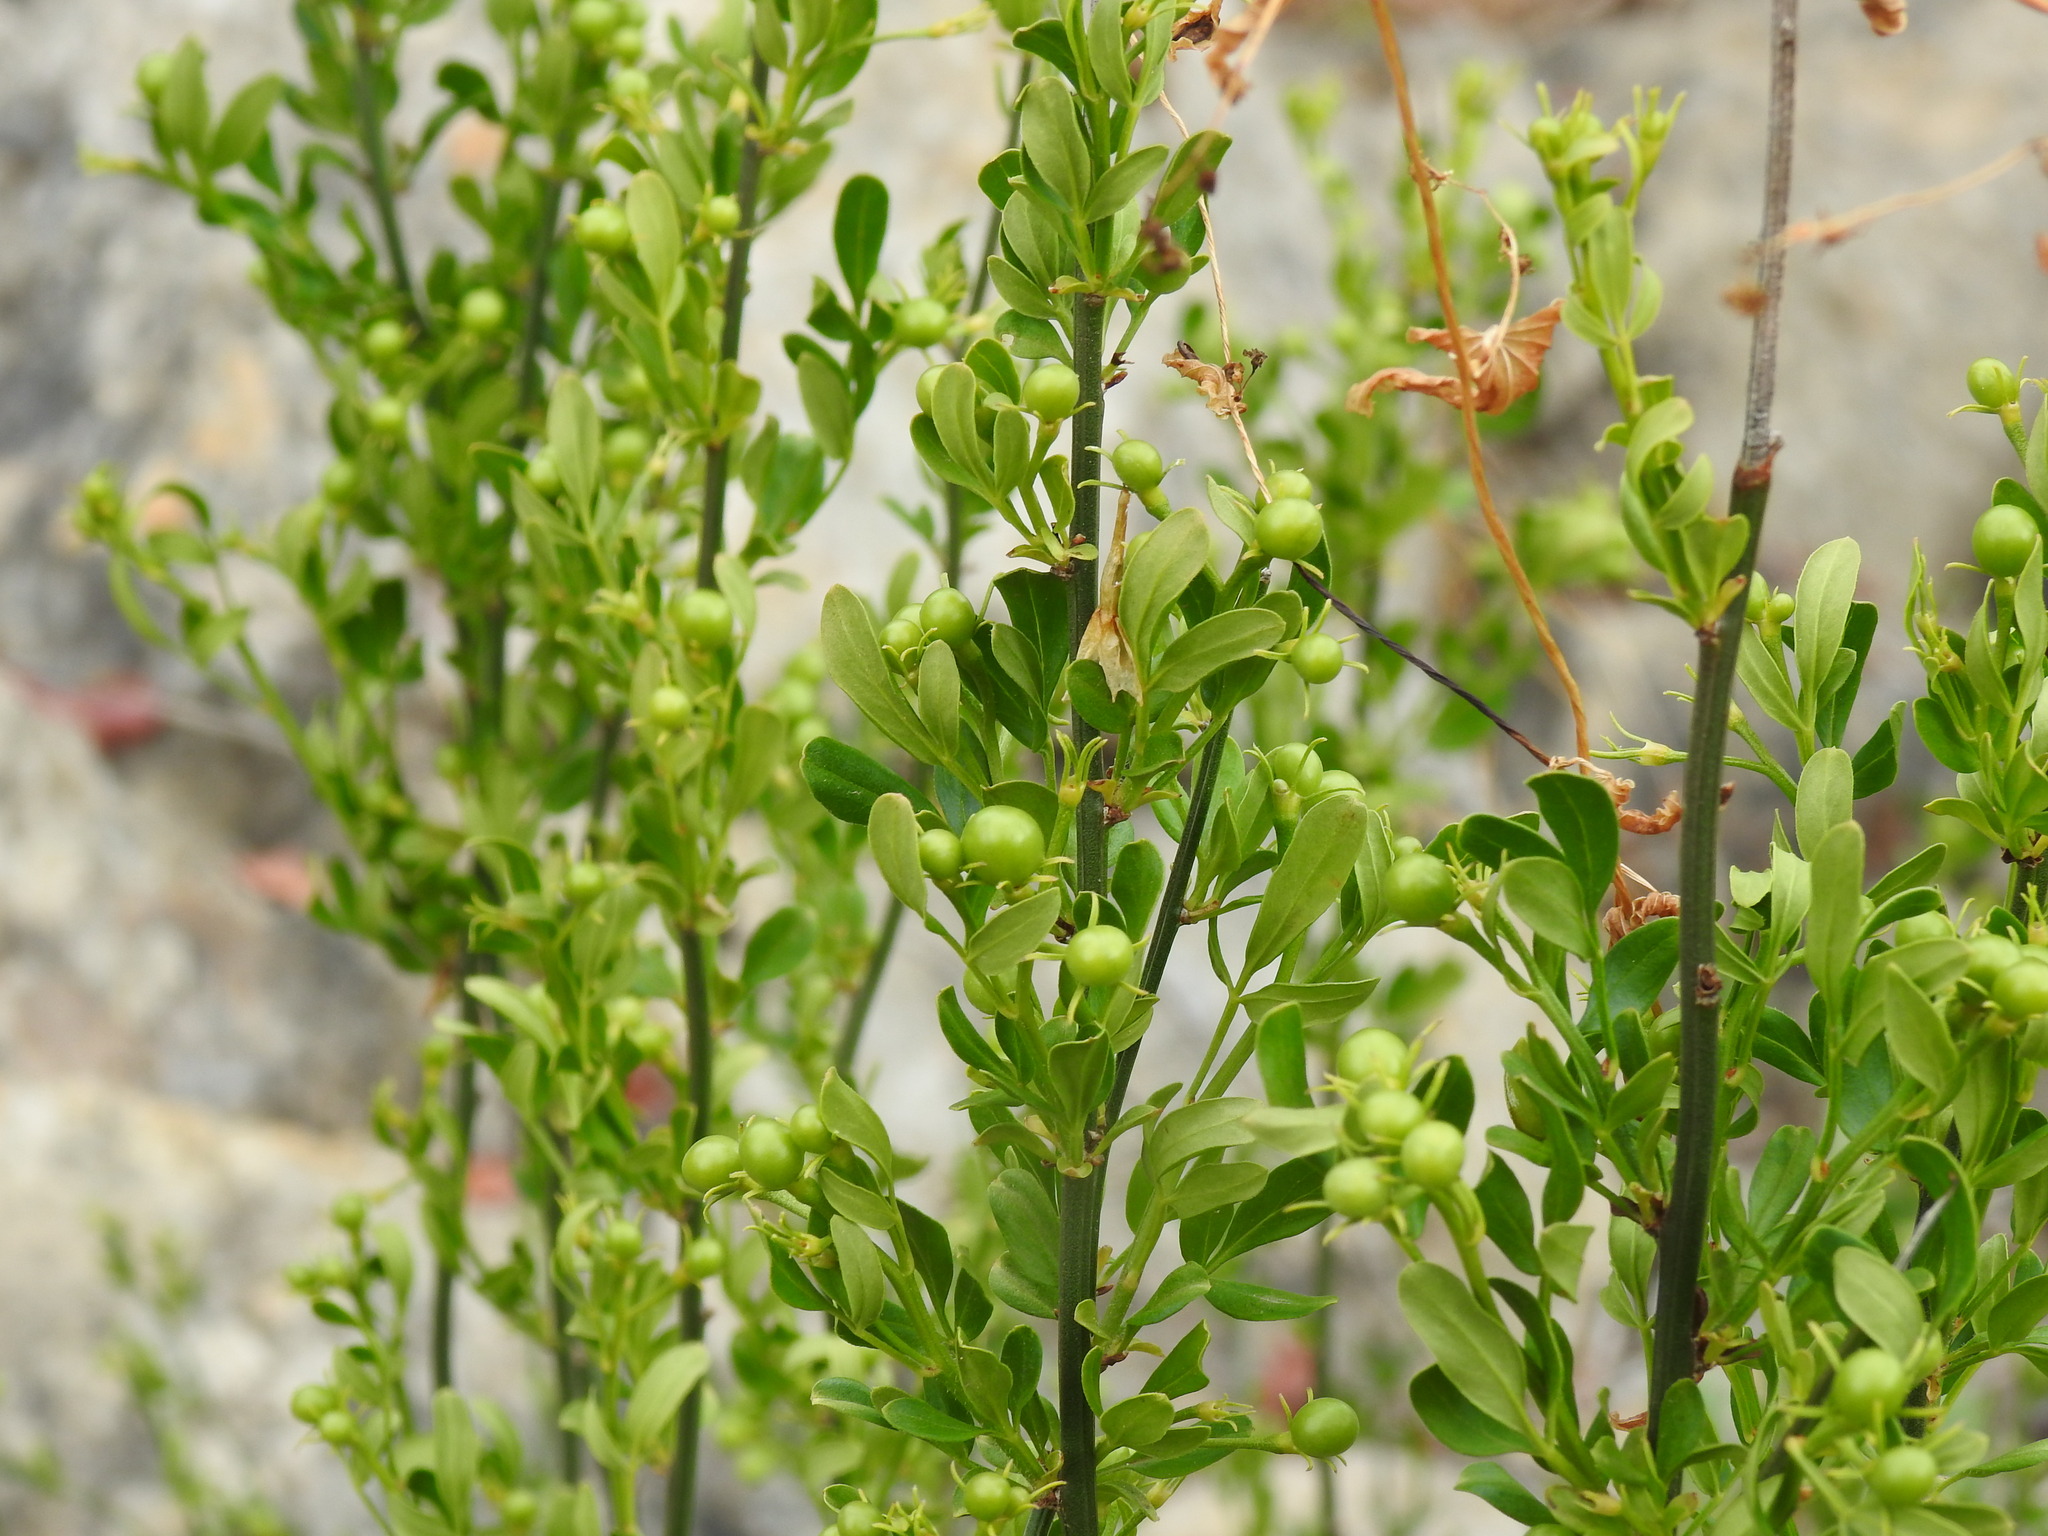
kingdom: Plantae
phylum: Tracheophyta
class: Magnoliopsida
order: Lamiales
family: Oleaceae
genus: Chrysojasminum
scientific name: Chrysojasminum fruticans
